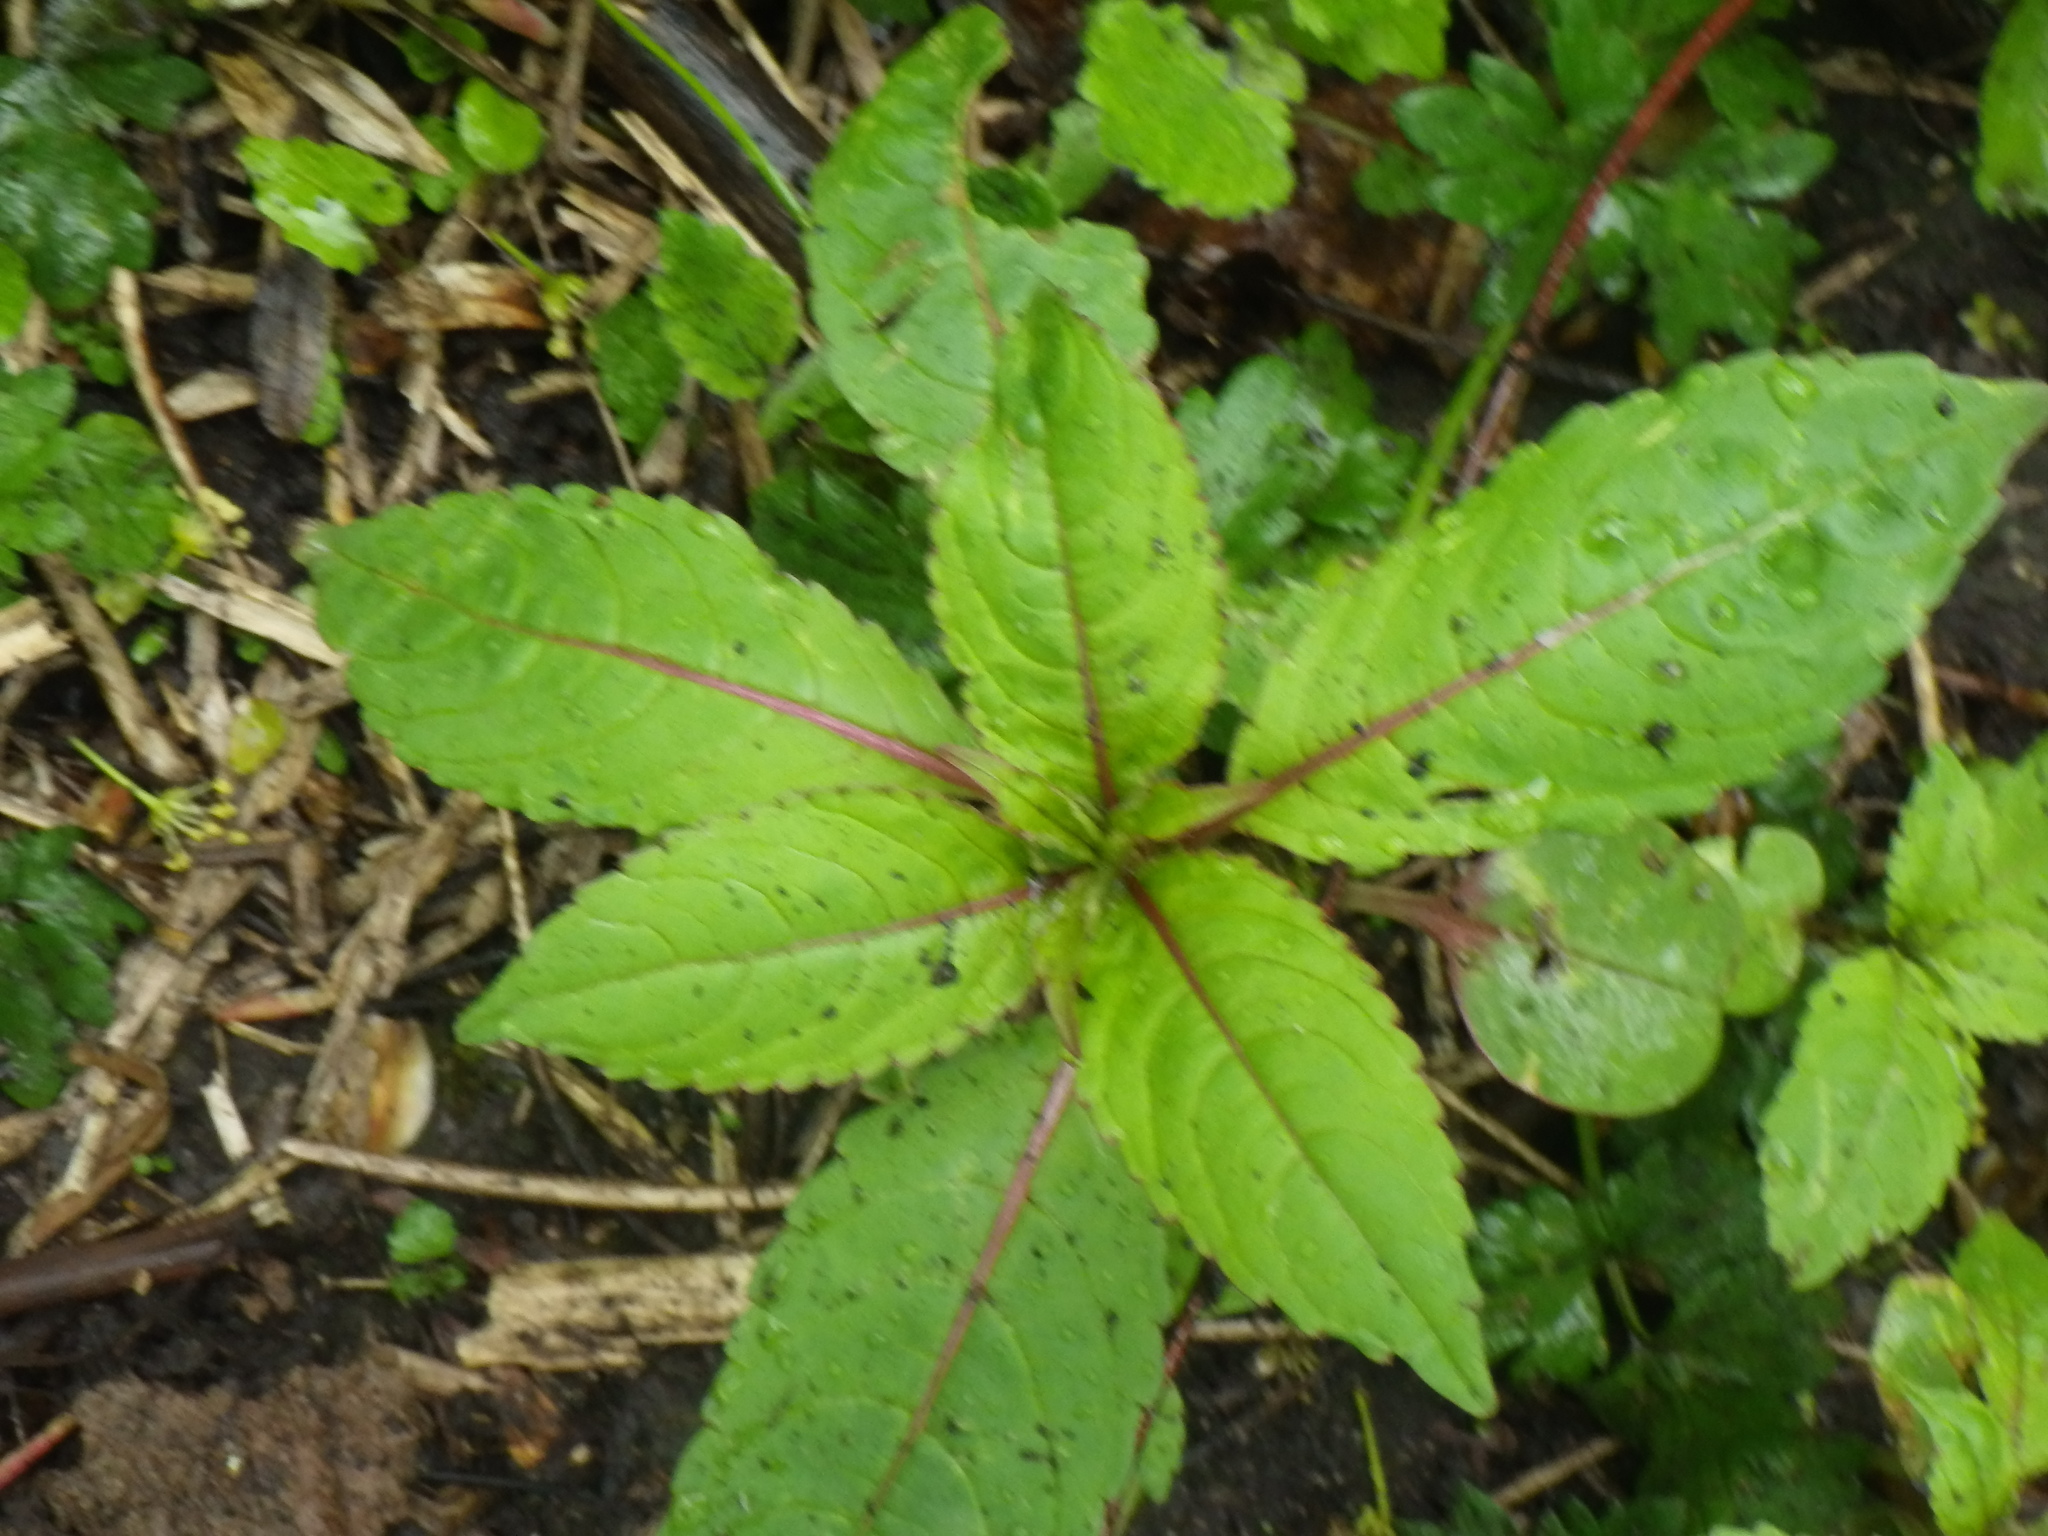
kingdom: Plantae
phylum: Tracheophyta
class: Magnoliopsida
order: Ericales
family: Balsaminaceae
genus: Impatiens
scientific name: Impatiens glandulifera
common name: Himalayan balsam
